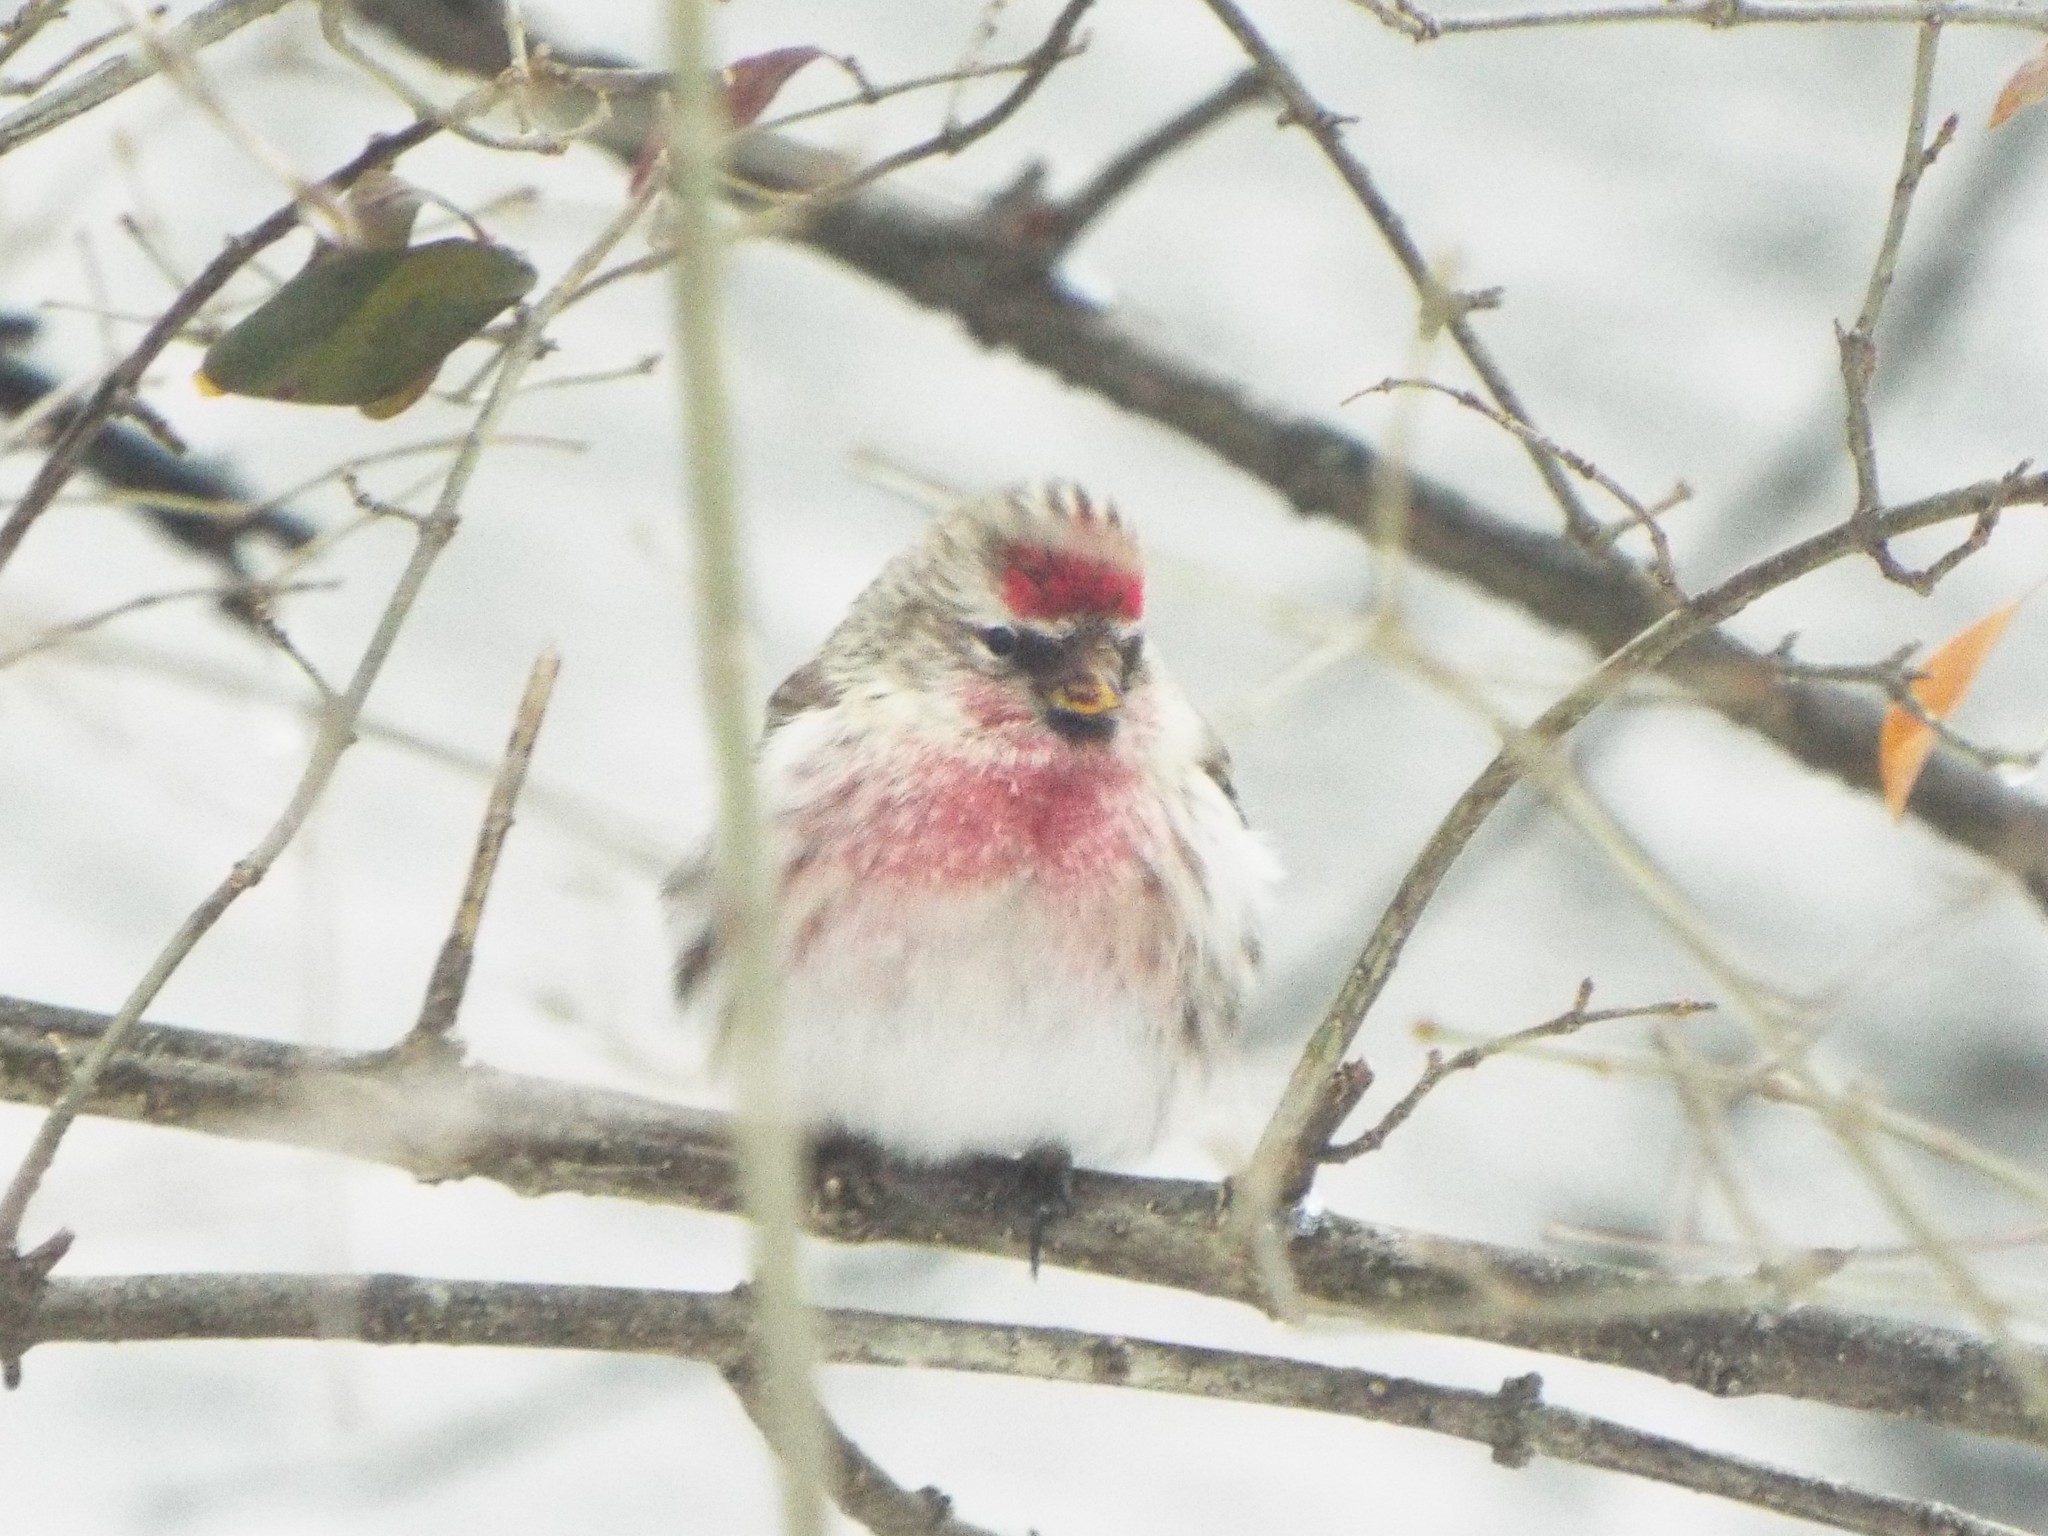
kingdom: Animalia
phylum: Chordata
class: Aves
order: Passeriformes
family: Fringillidae
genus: Acanthis
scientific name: Acanthis flammea
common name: Common redpoll
